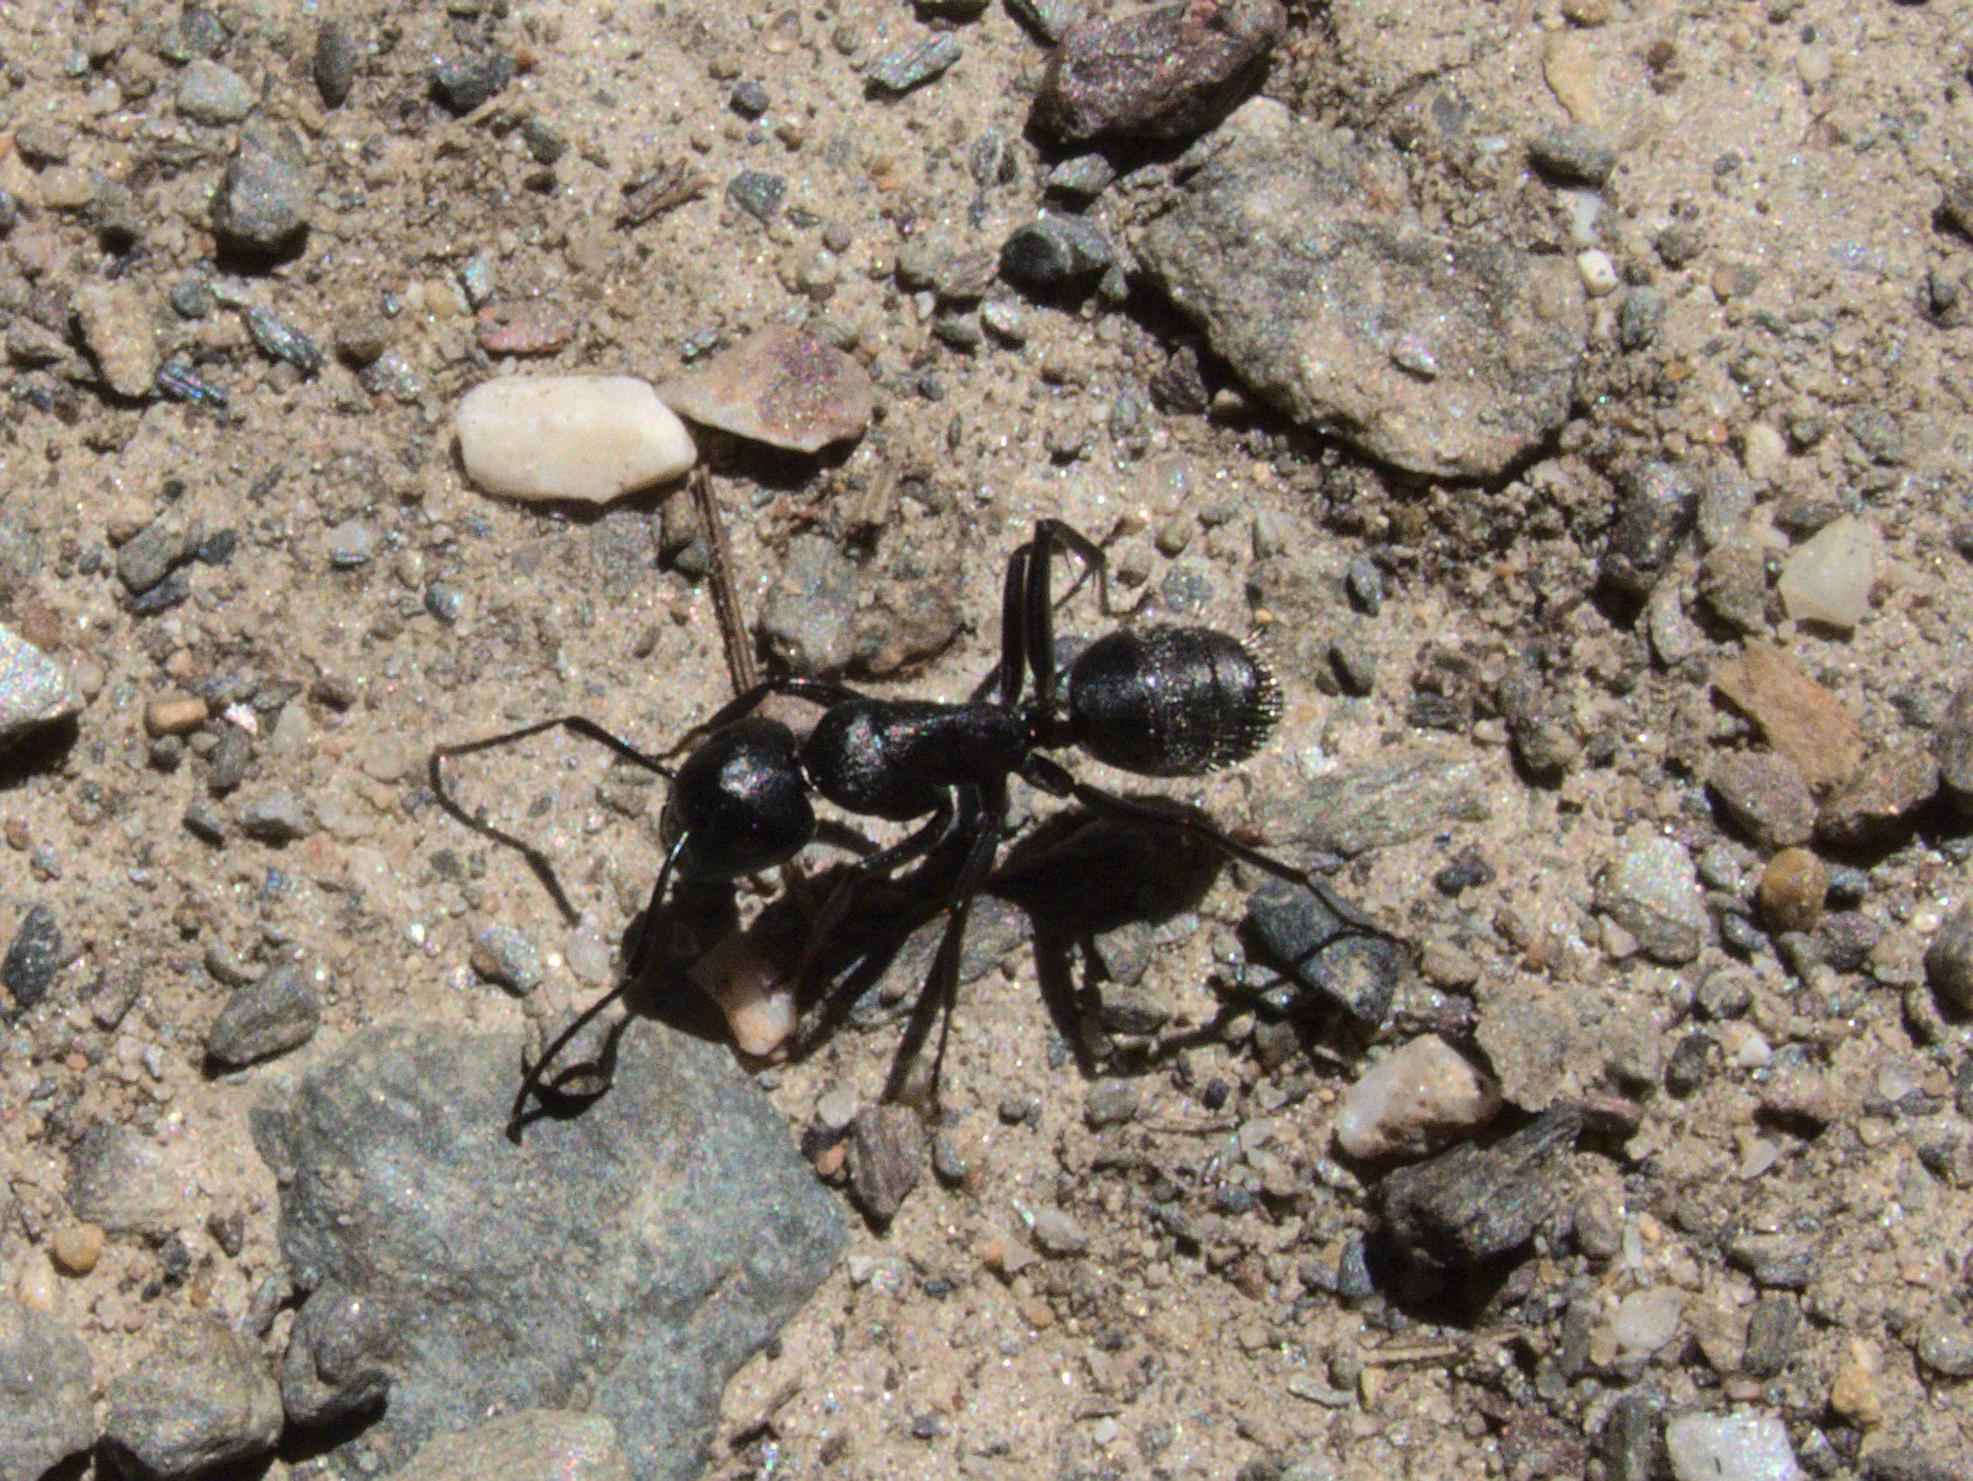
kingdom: Animalia
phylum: Arthropoda
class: Insecta
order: Hymenoptera
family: Formicidae
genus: Camponotus
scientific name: Camponotus vagus
